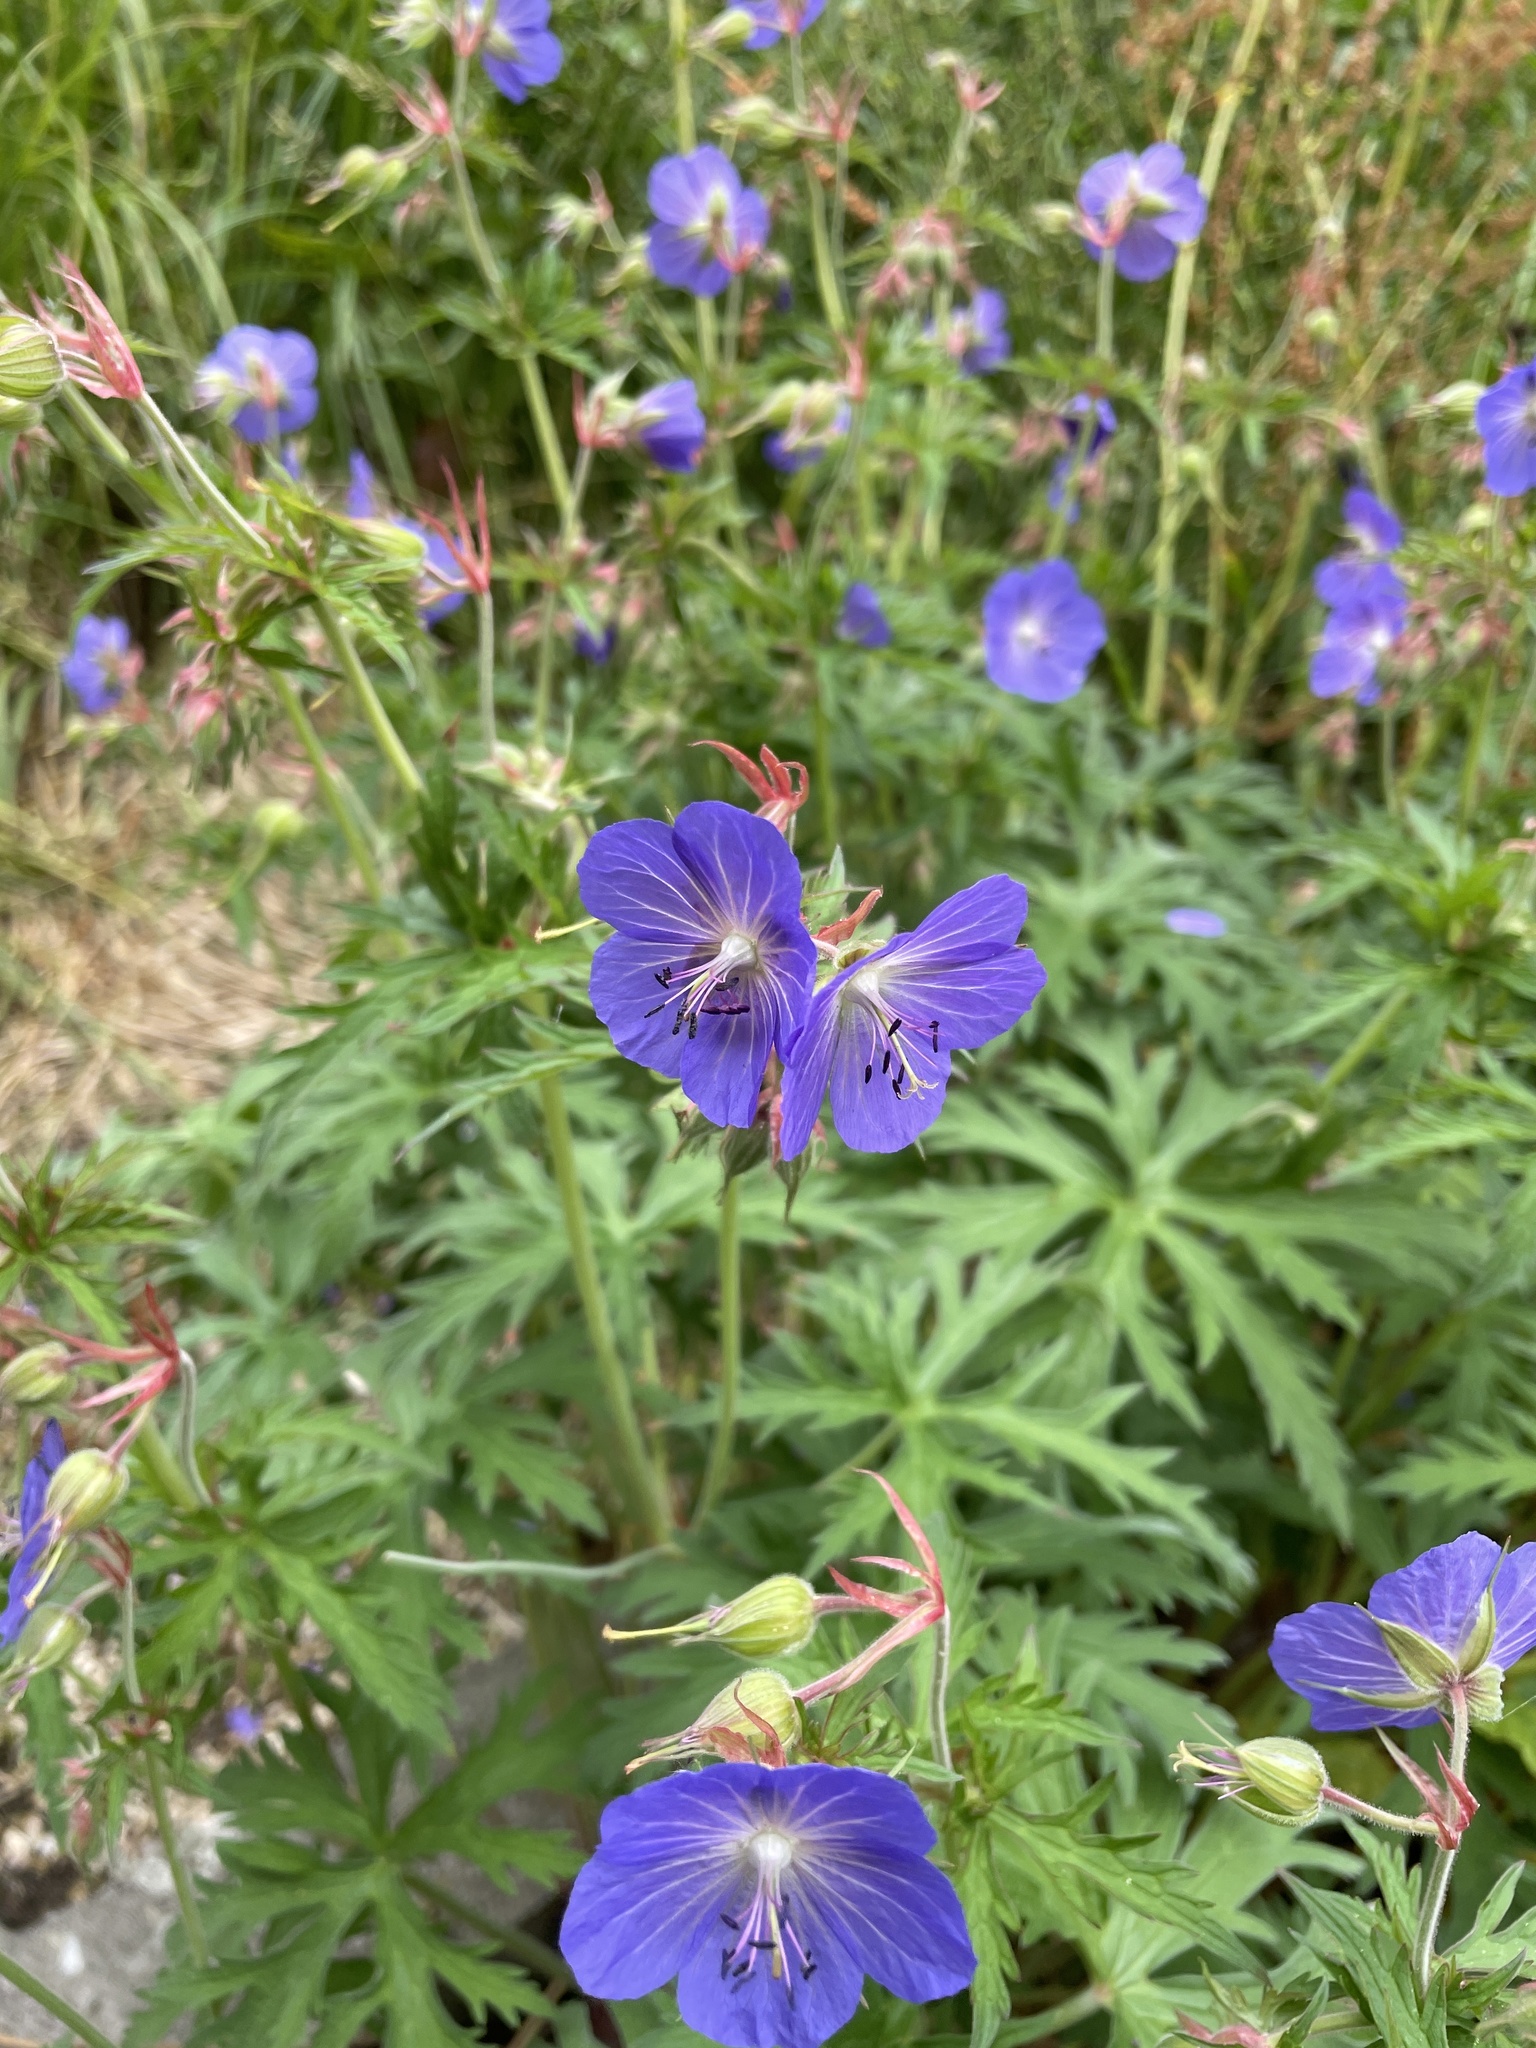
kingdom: Plantae
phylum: Tracheophyta
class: Magnoliopsida
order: Geraniales
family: Geraniaceae
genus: Geranium
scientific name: Geranium pratense
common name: Meadow crane's-bill
